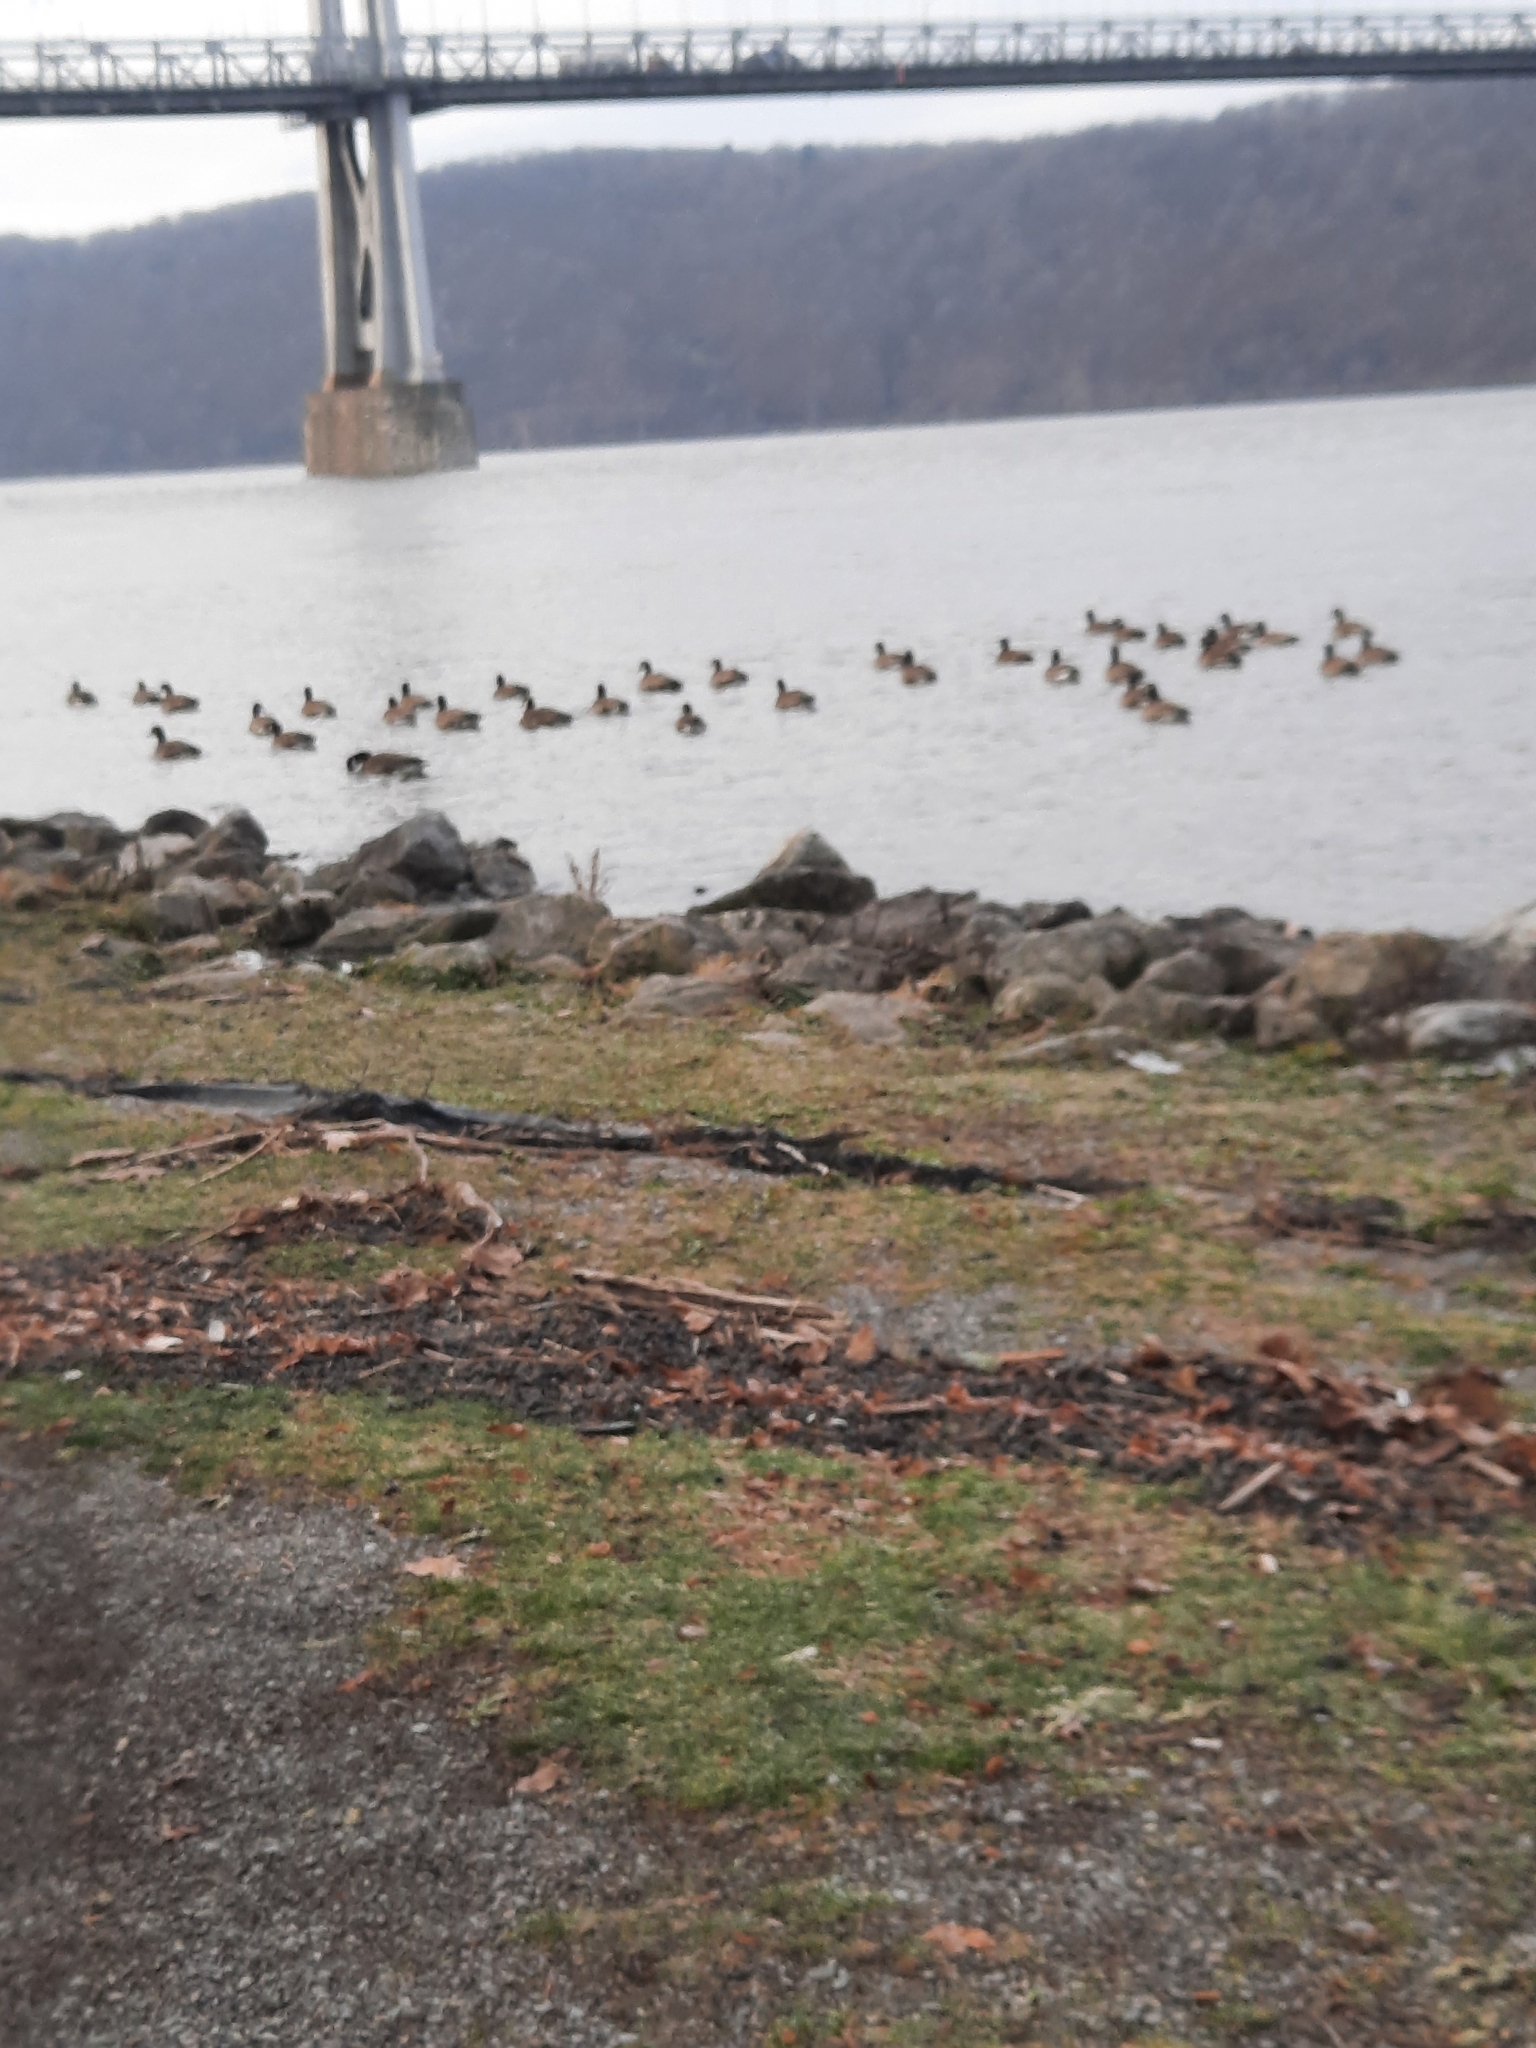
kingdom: Animalia
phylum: Chordata
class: Aves
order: Anseriformes
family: Anatidae
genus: Branta
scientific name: Branta canadensis
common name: Canada goose
